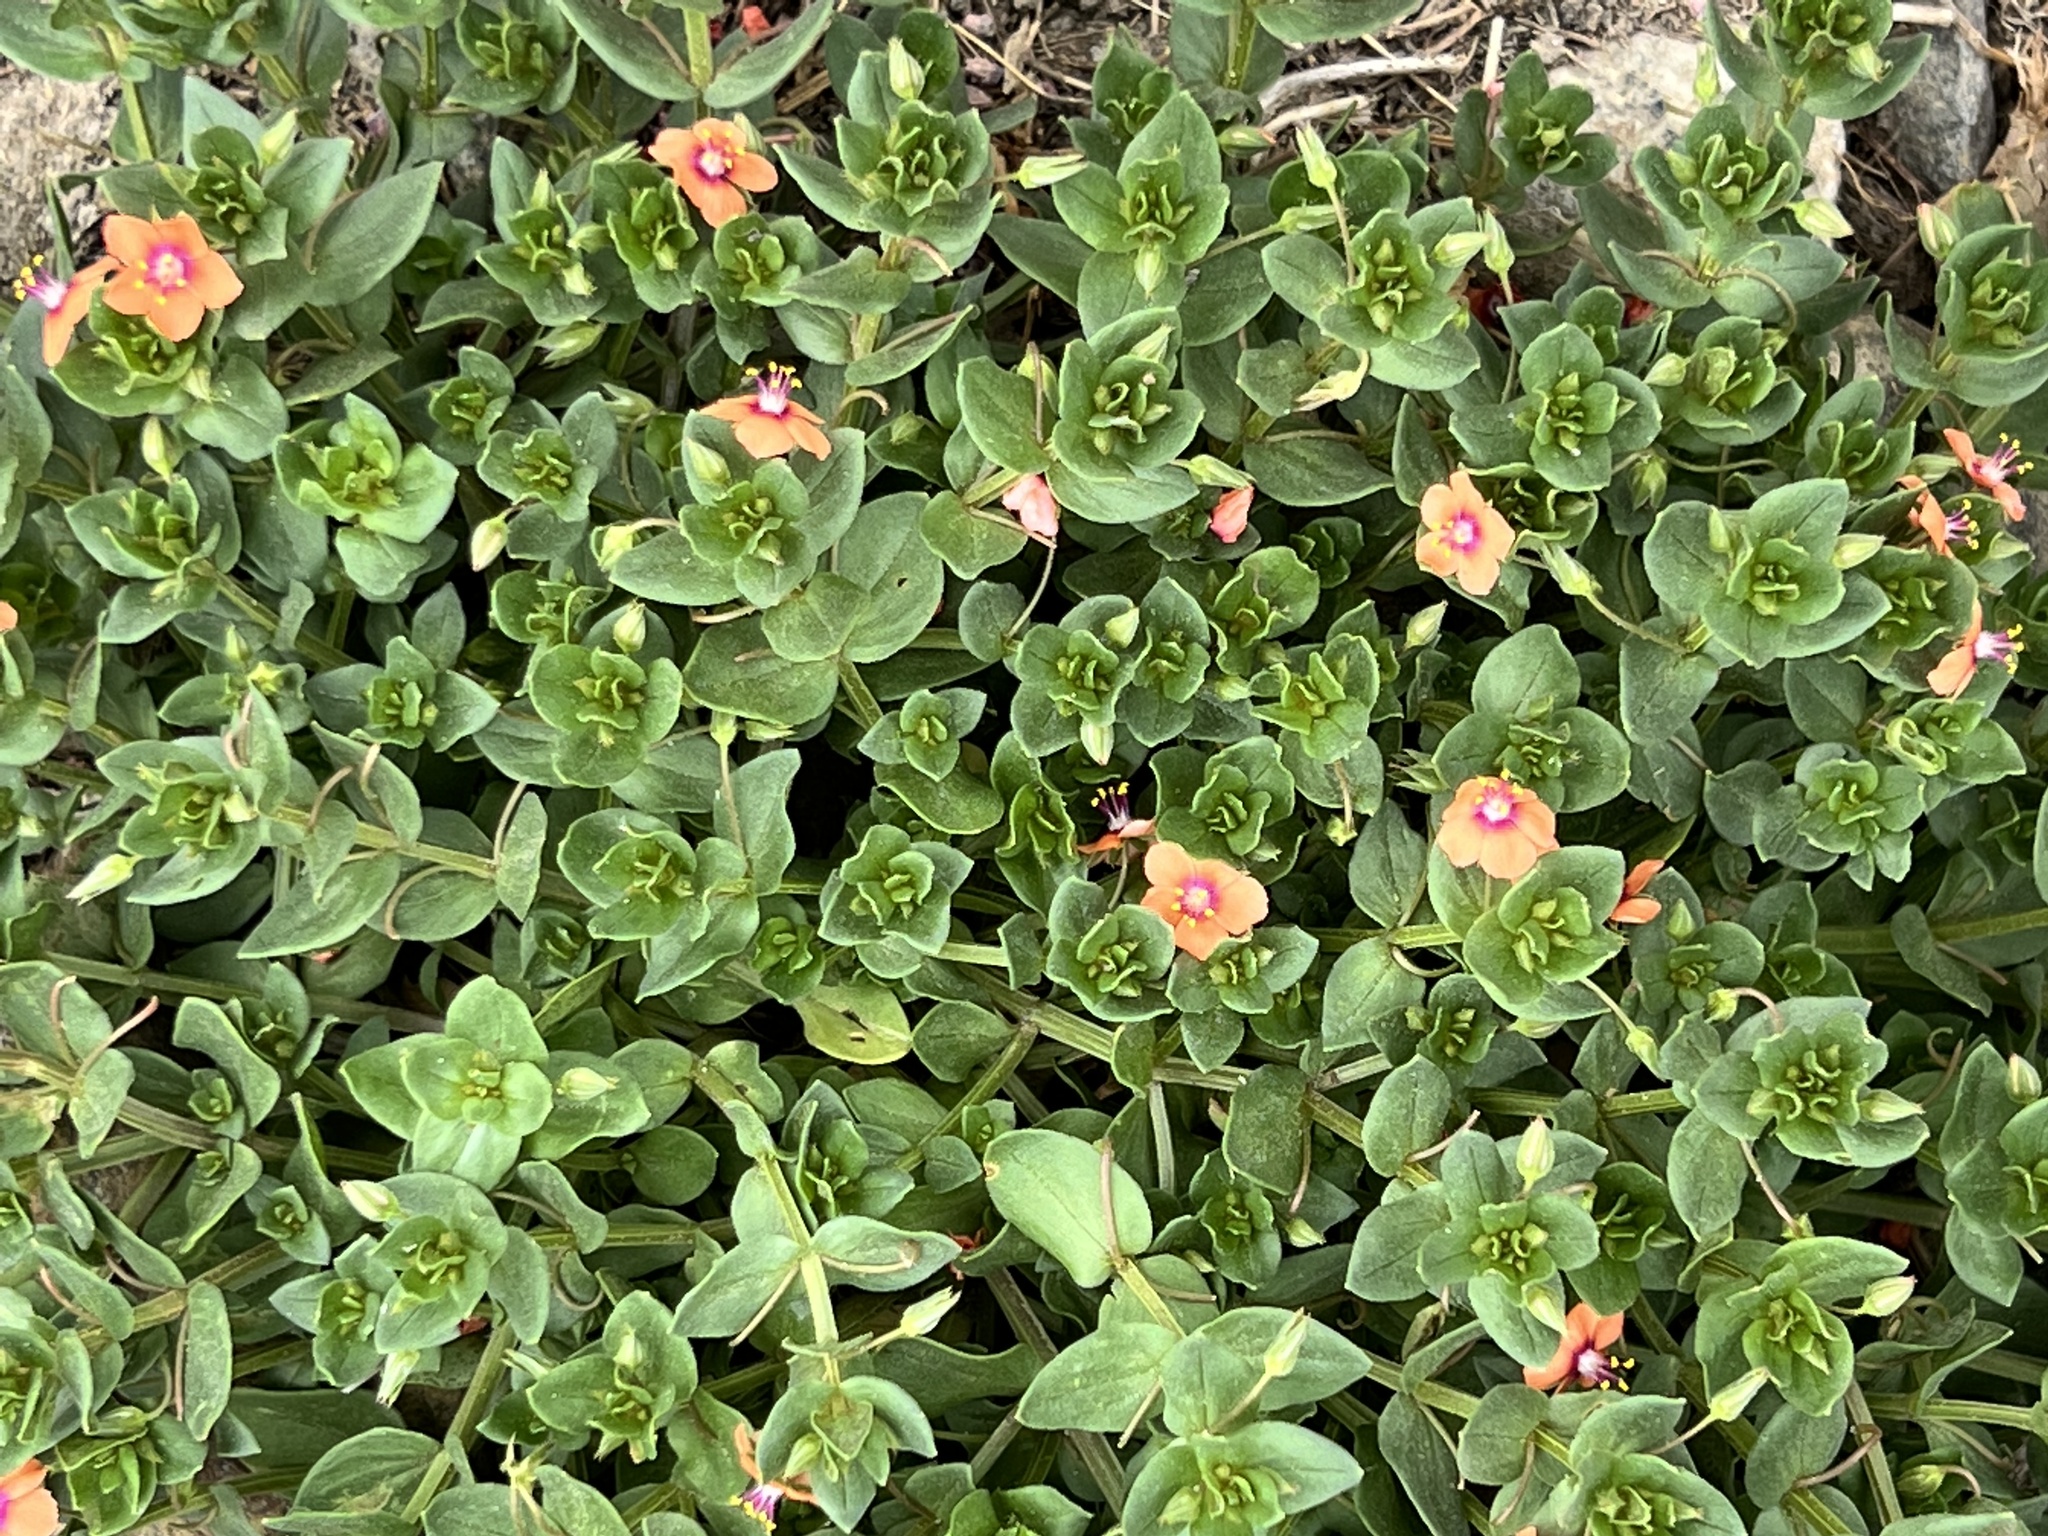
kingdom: Plantae
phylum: Tracheophyta
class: Magnoliopsida
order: Ericales
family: Primulaceae
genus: Lysimachia
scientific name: Lysimachia arvensis
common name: Scarlet pimpernel
